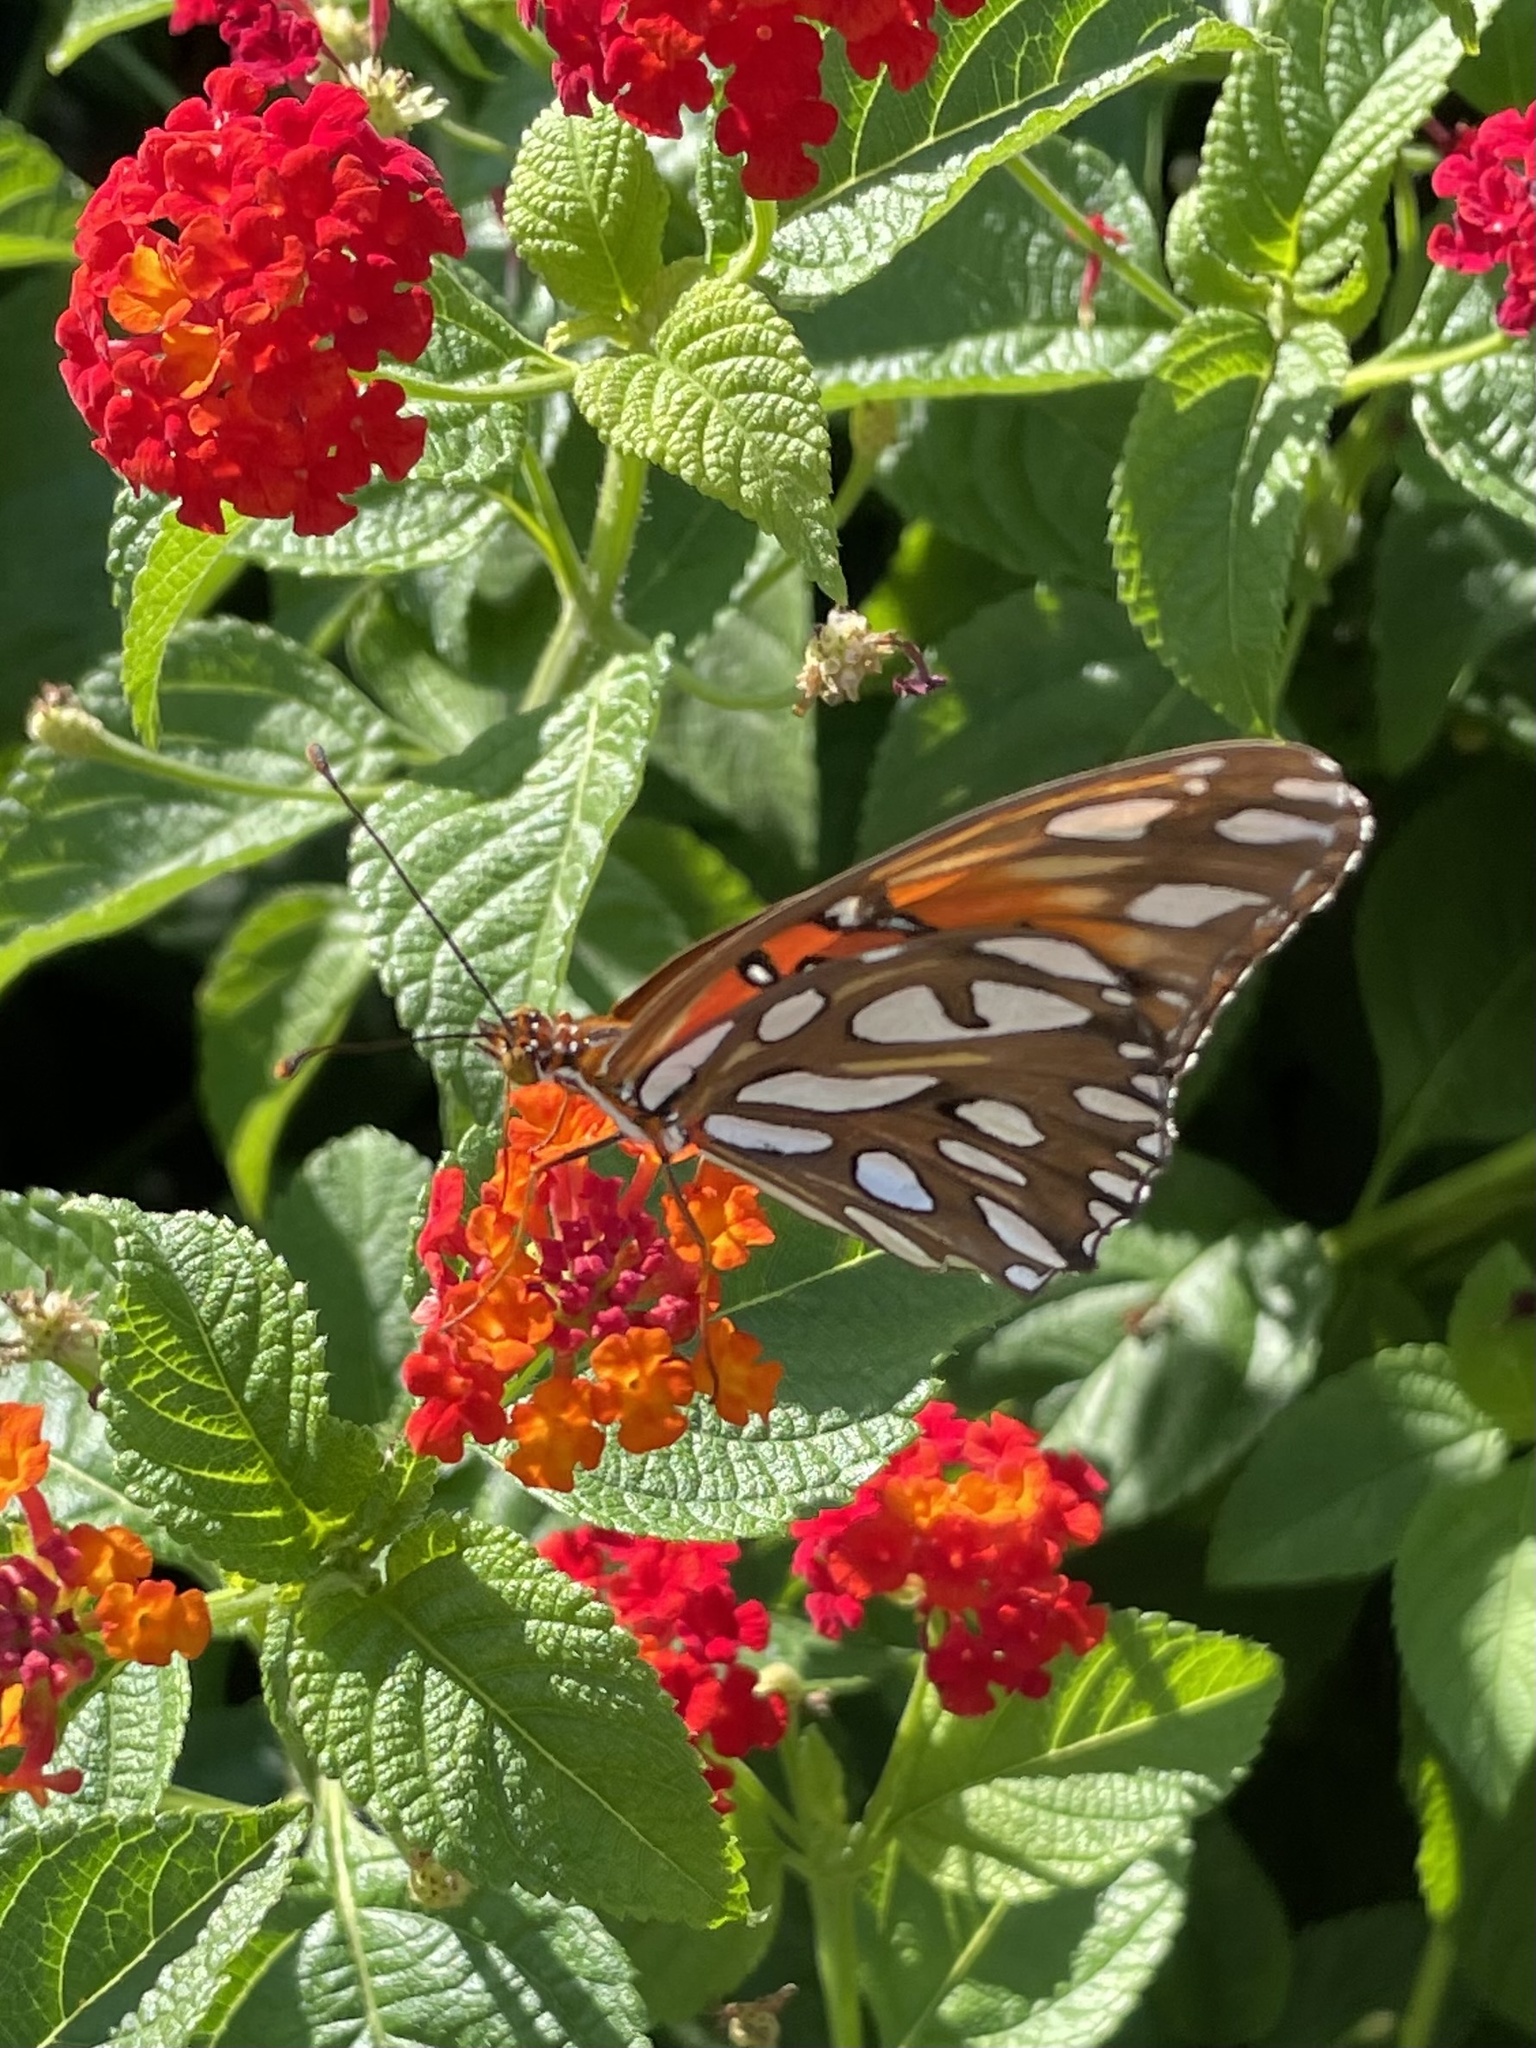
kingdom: Animalia
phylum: Arthropoda
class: Insecta
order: Lepidoptera
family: Nymphalidae
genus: Dione
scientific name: Dione vanillae
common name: Gulf fritillary
